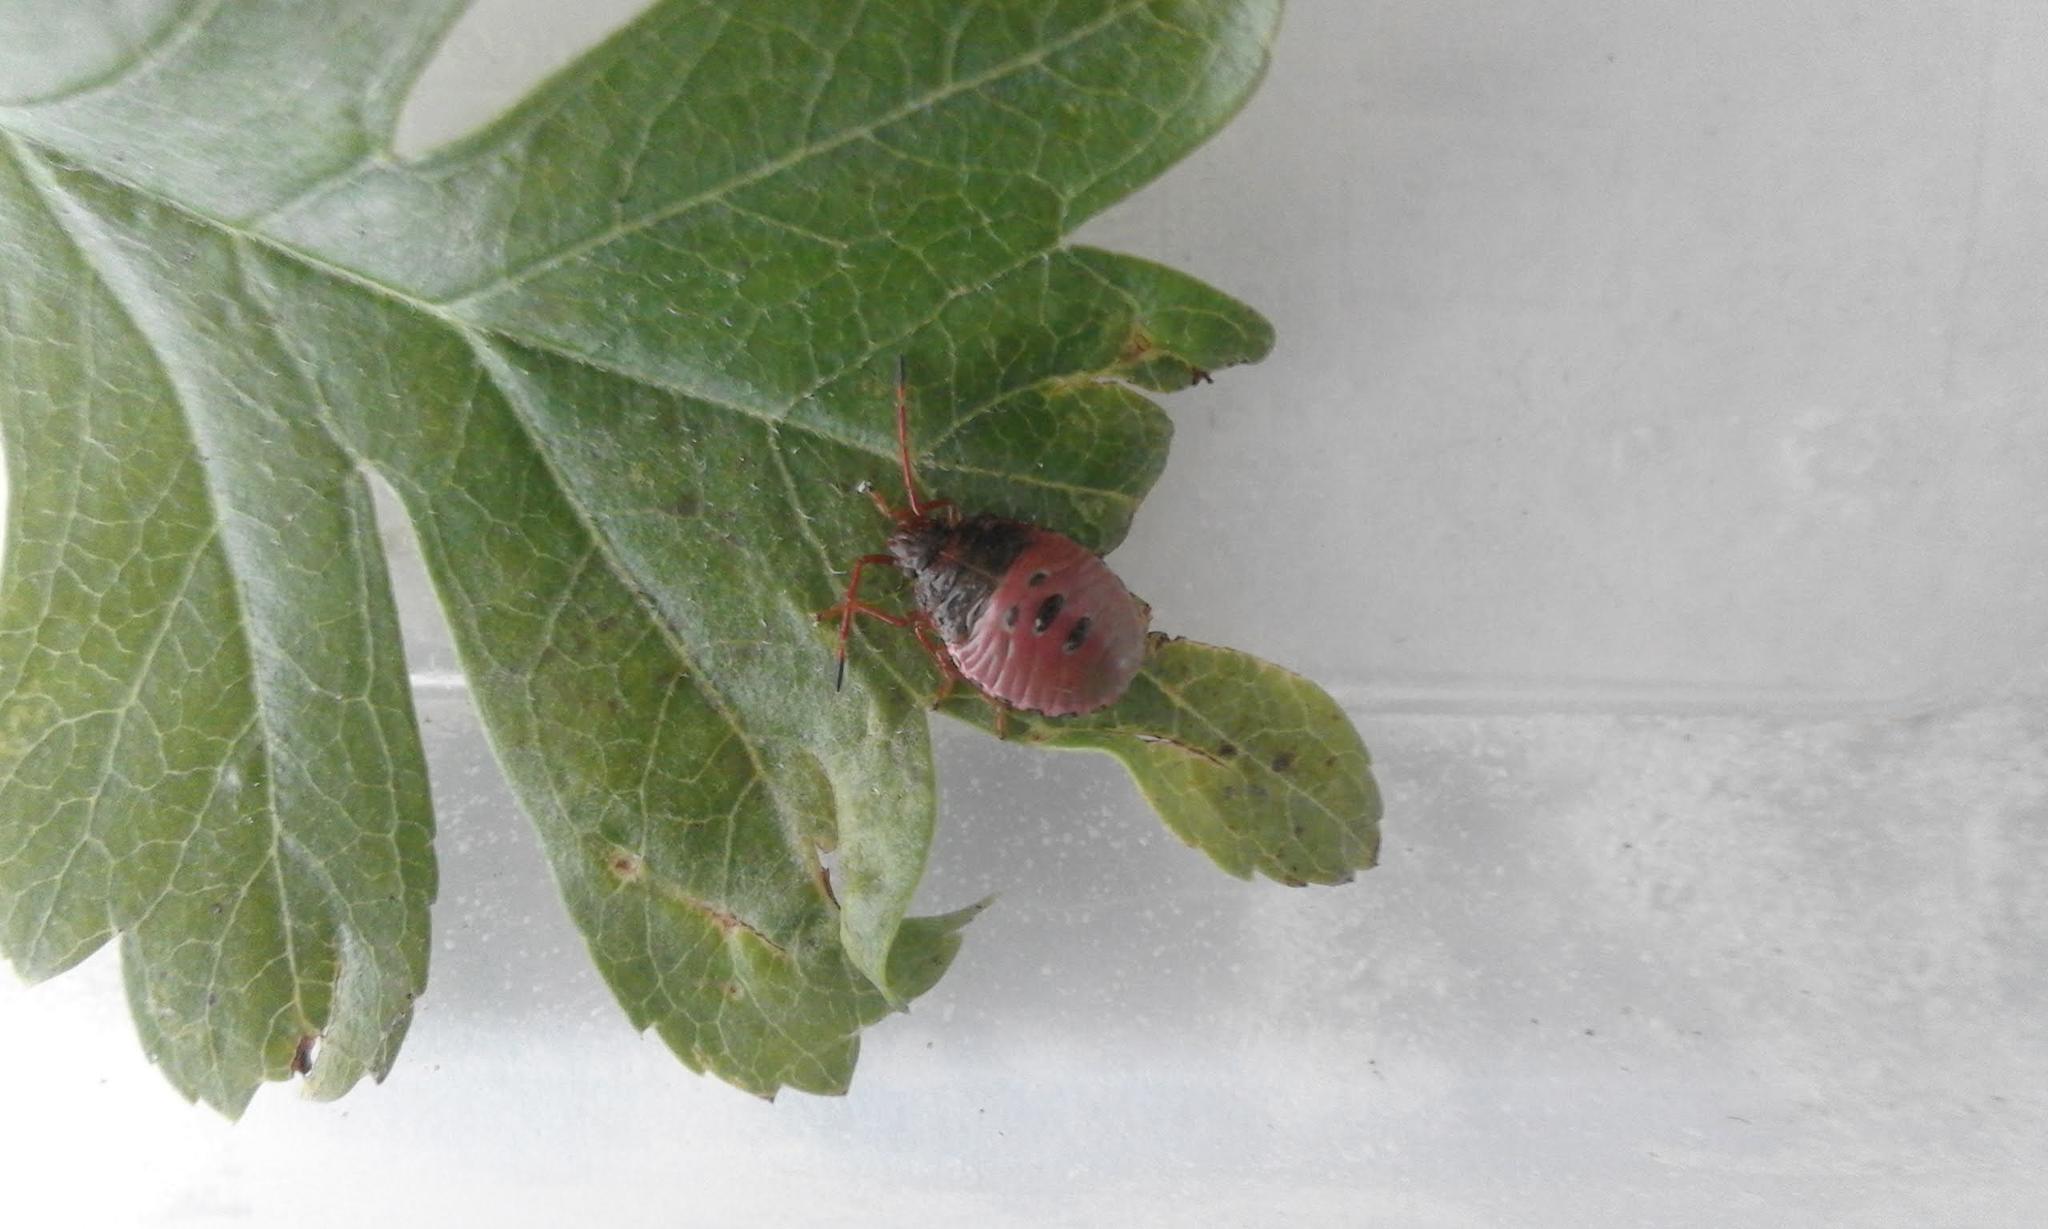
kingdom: Animalia
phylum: Arthropoda
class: Insecta
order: Hemiptera
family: Acanthosomatidae
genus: Acanthosoma
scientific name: Acanthosoma haemorrhoidale
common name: Hawthorn shieldbug
